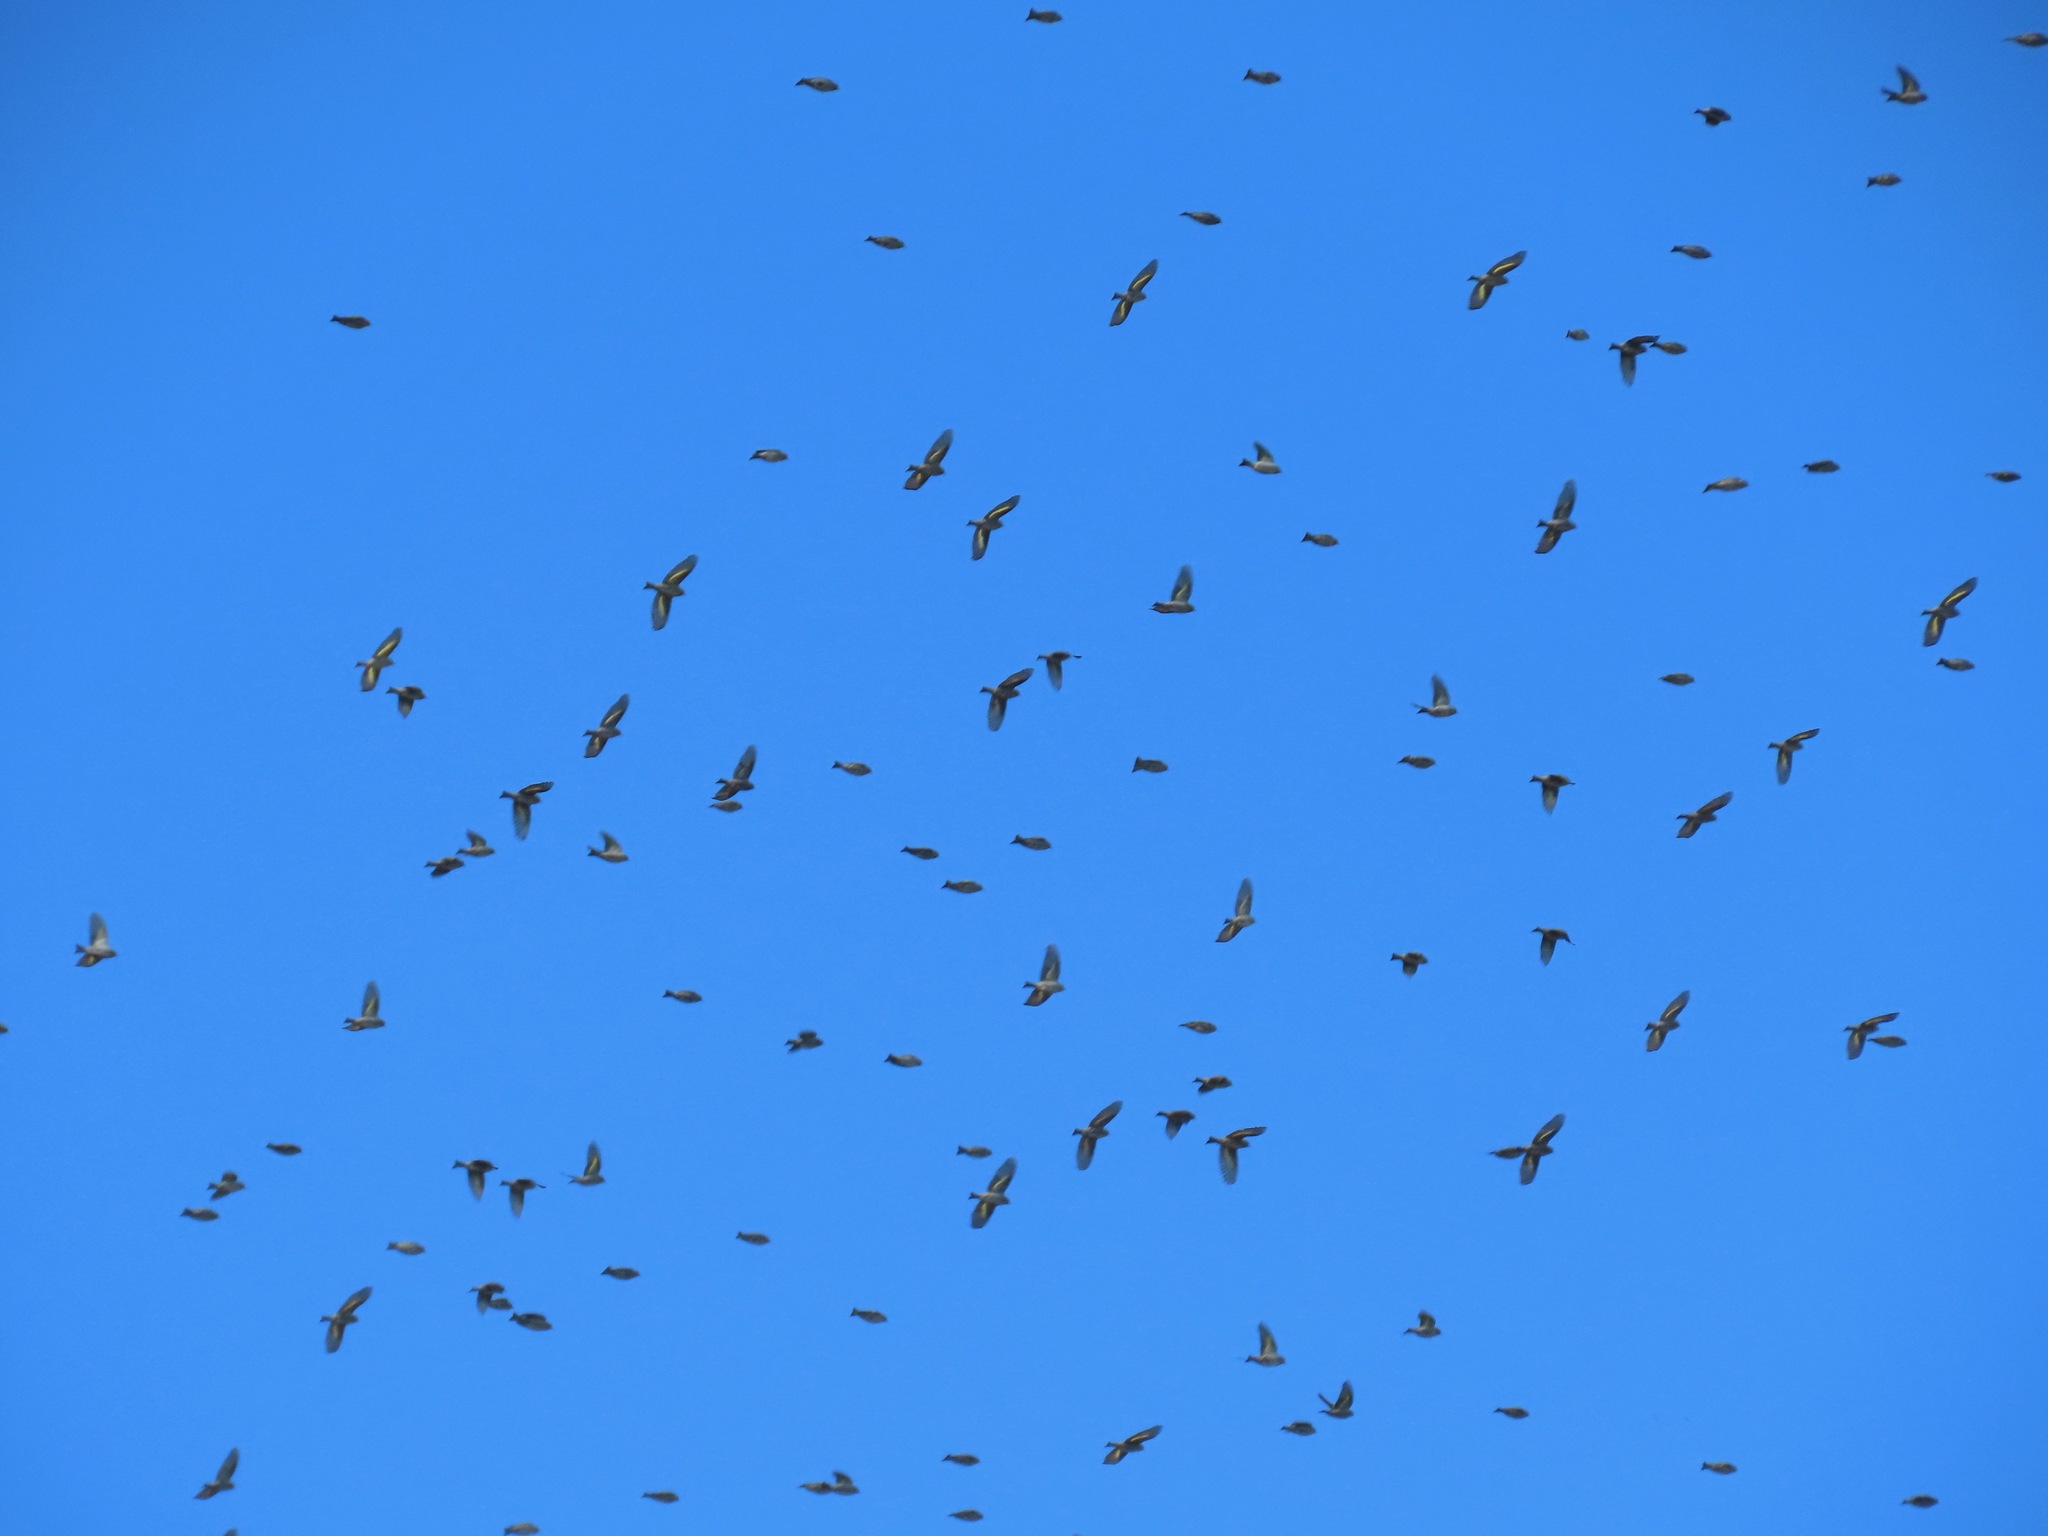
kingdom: Animalia
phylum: Chordata
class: Aves
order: Passeriformes
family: Fringillidae
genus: Spinus
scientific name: Spinus pinus
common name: Pine siskin
